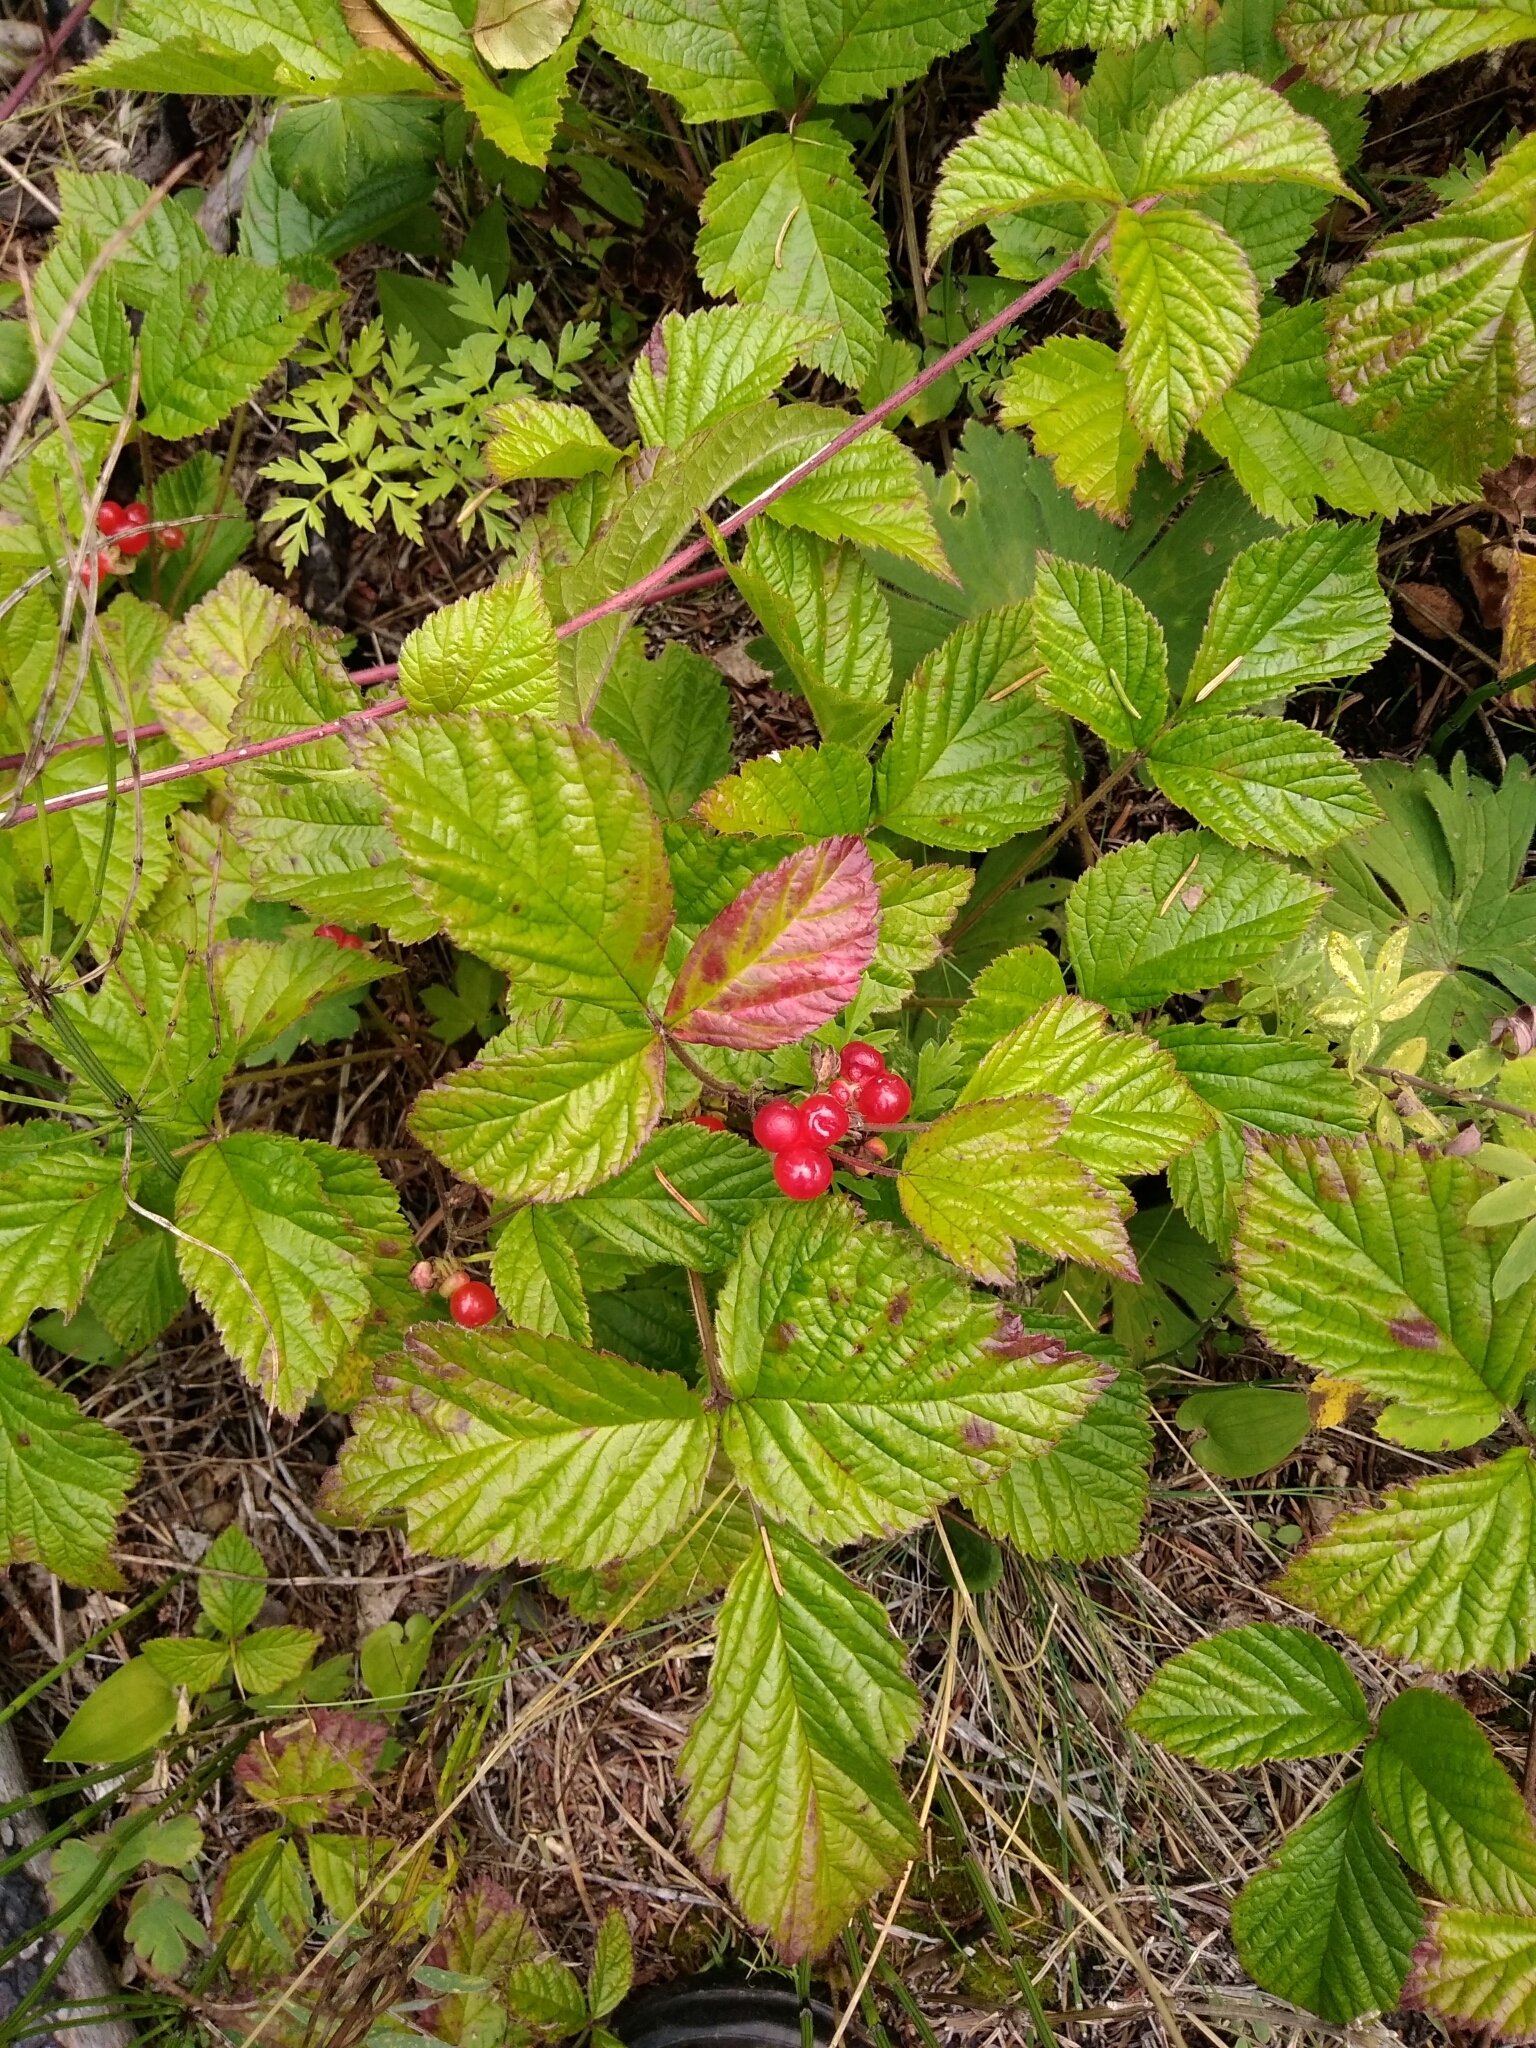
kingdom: Plantae
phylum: Tracheophyta
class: Magnoliopsida
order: Rosales
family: Rosaceae
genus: Rubus
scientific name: Rubus saxatilis
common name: Stone bramble
